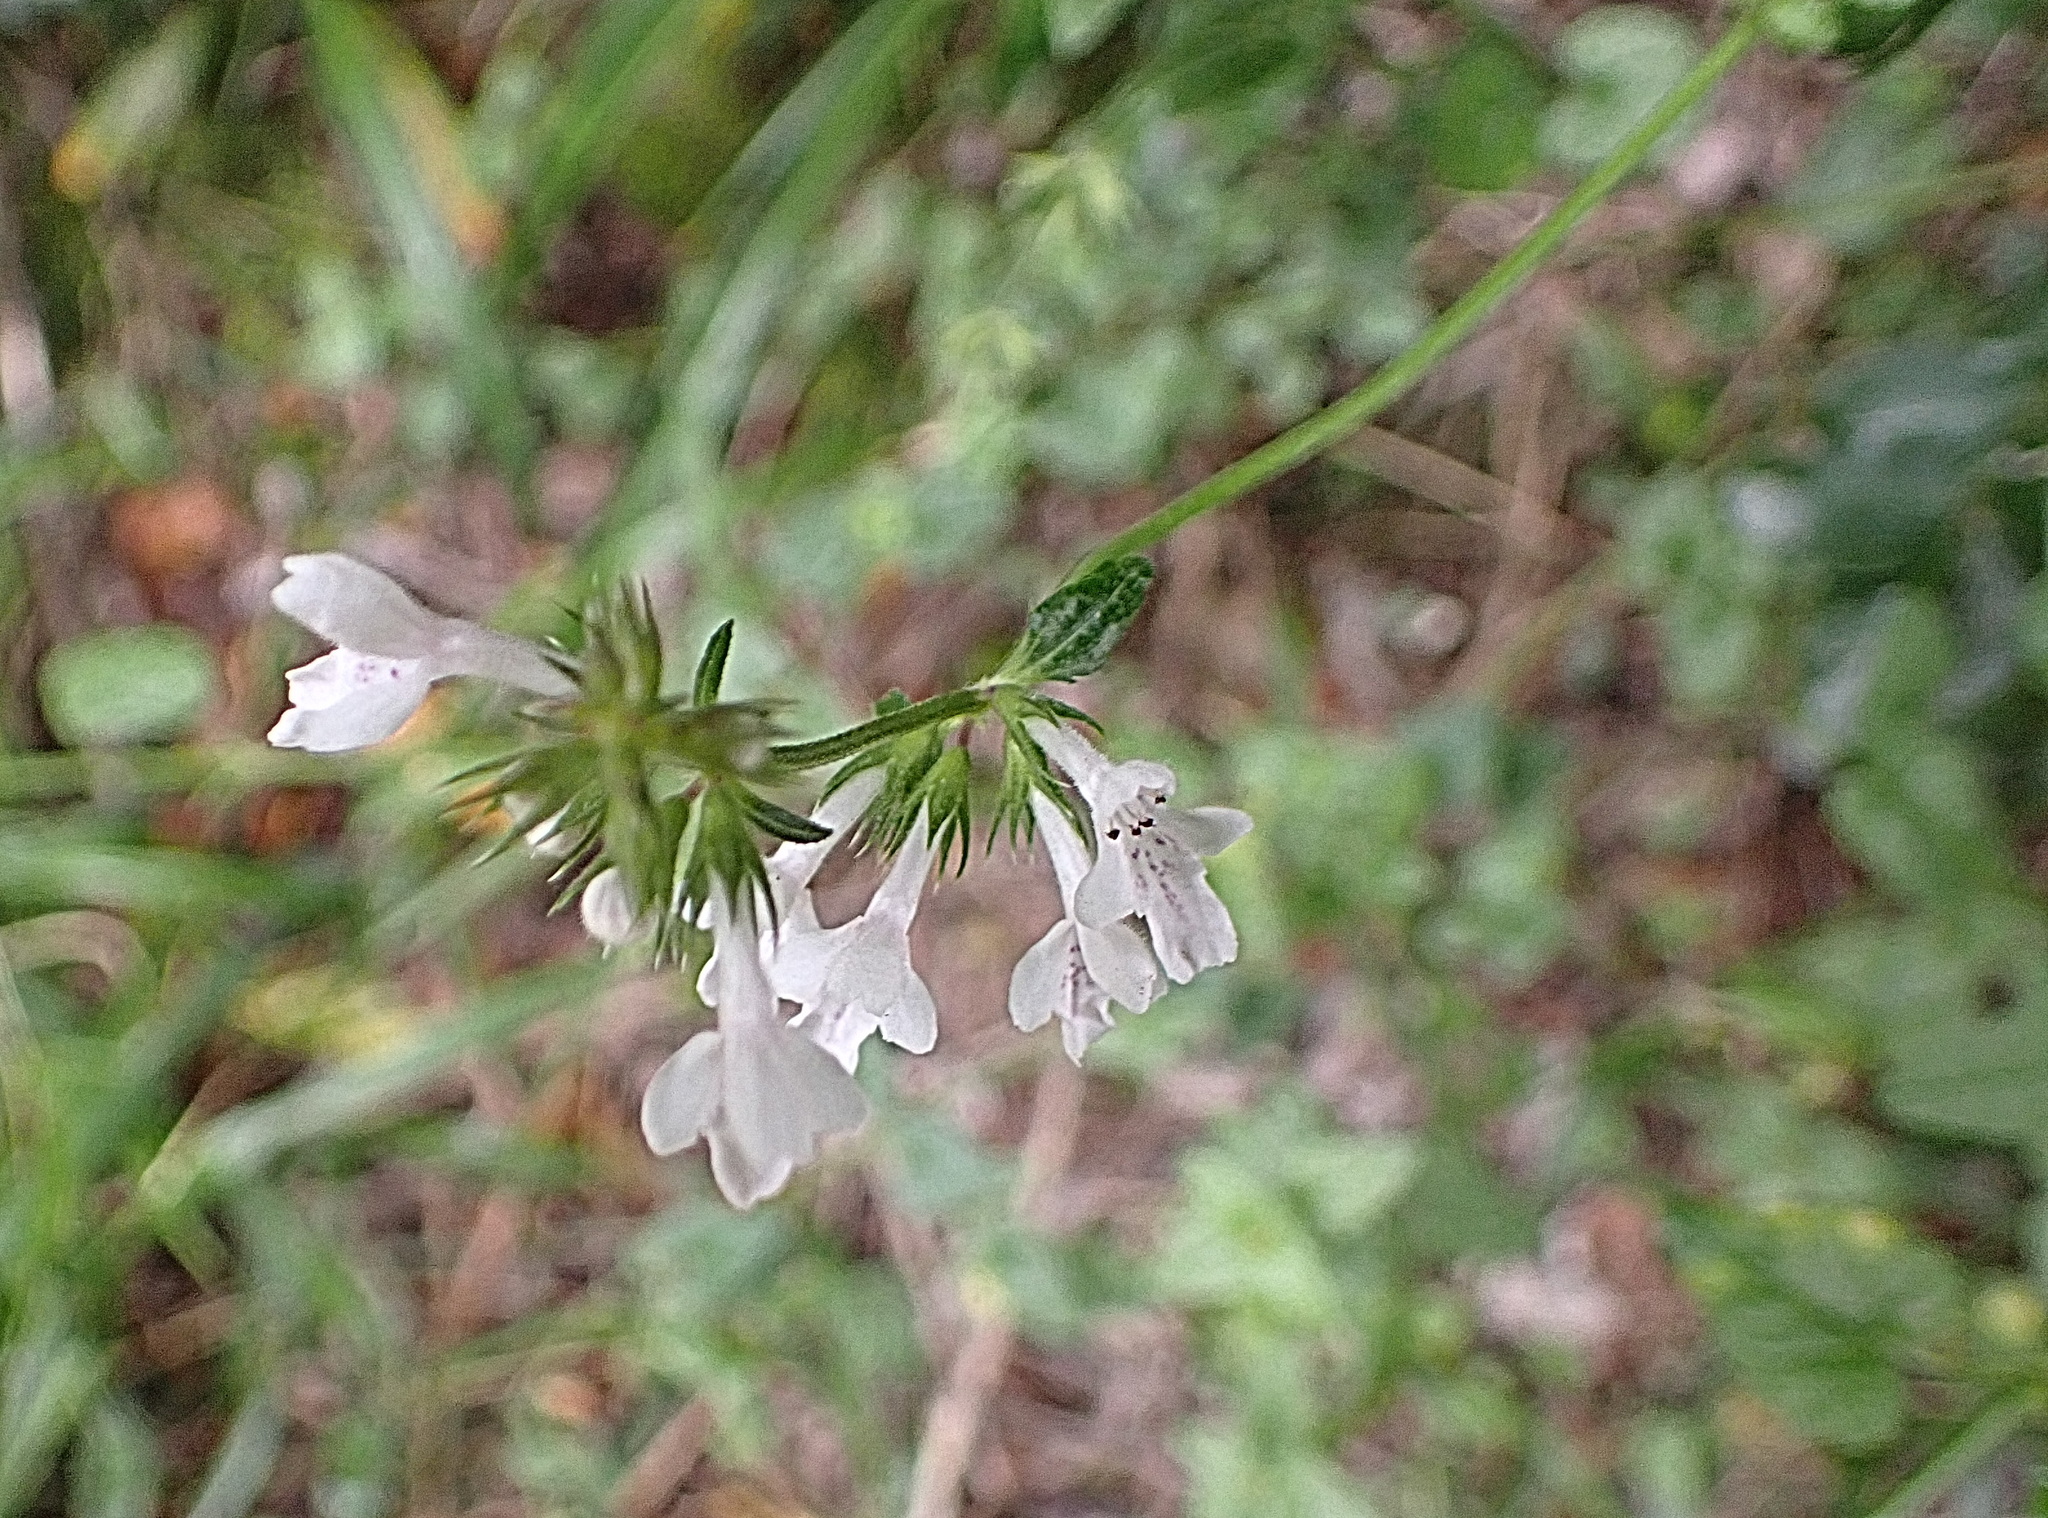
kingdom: Plantae
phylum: Tracheophyta
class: Magnoliopsida
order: Lamiales
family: Lamiaceae
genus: Stachys
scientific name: Stachys aethiopica
